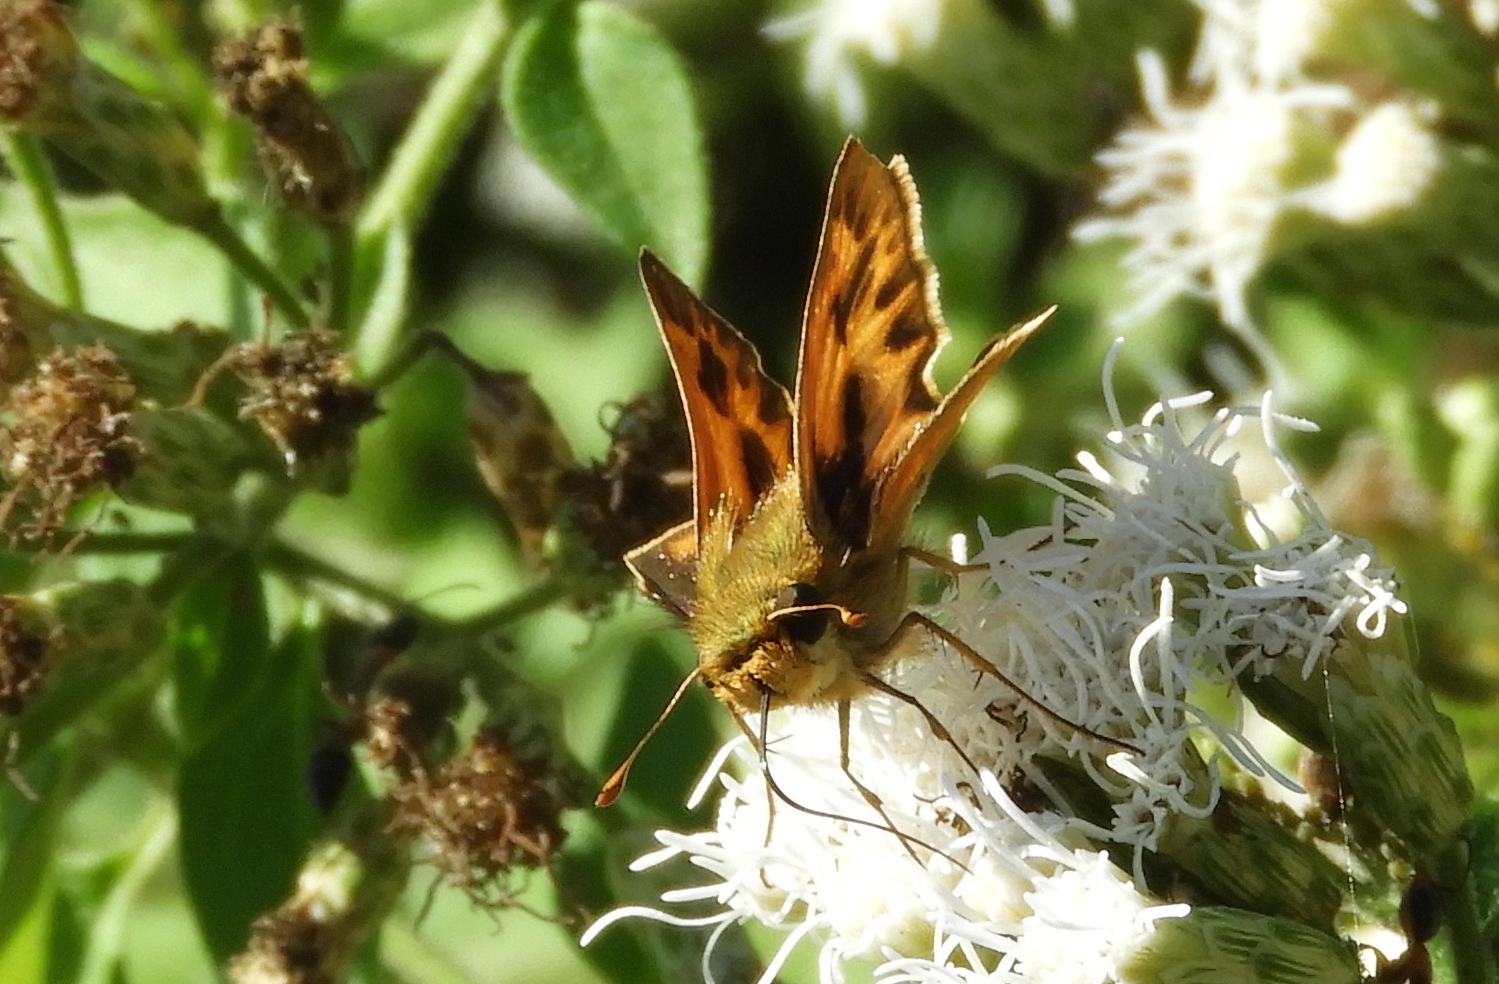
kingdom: Animalia
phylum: Arthropoda
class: Insecta
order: Lepidoptera
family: Hesperiidae
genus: Hylephila
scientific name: Hylephila phyleus
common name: Fiery skipper
